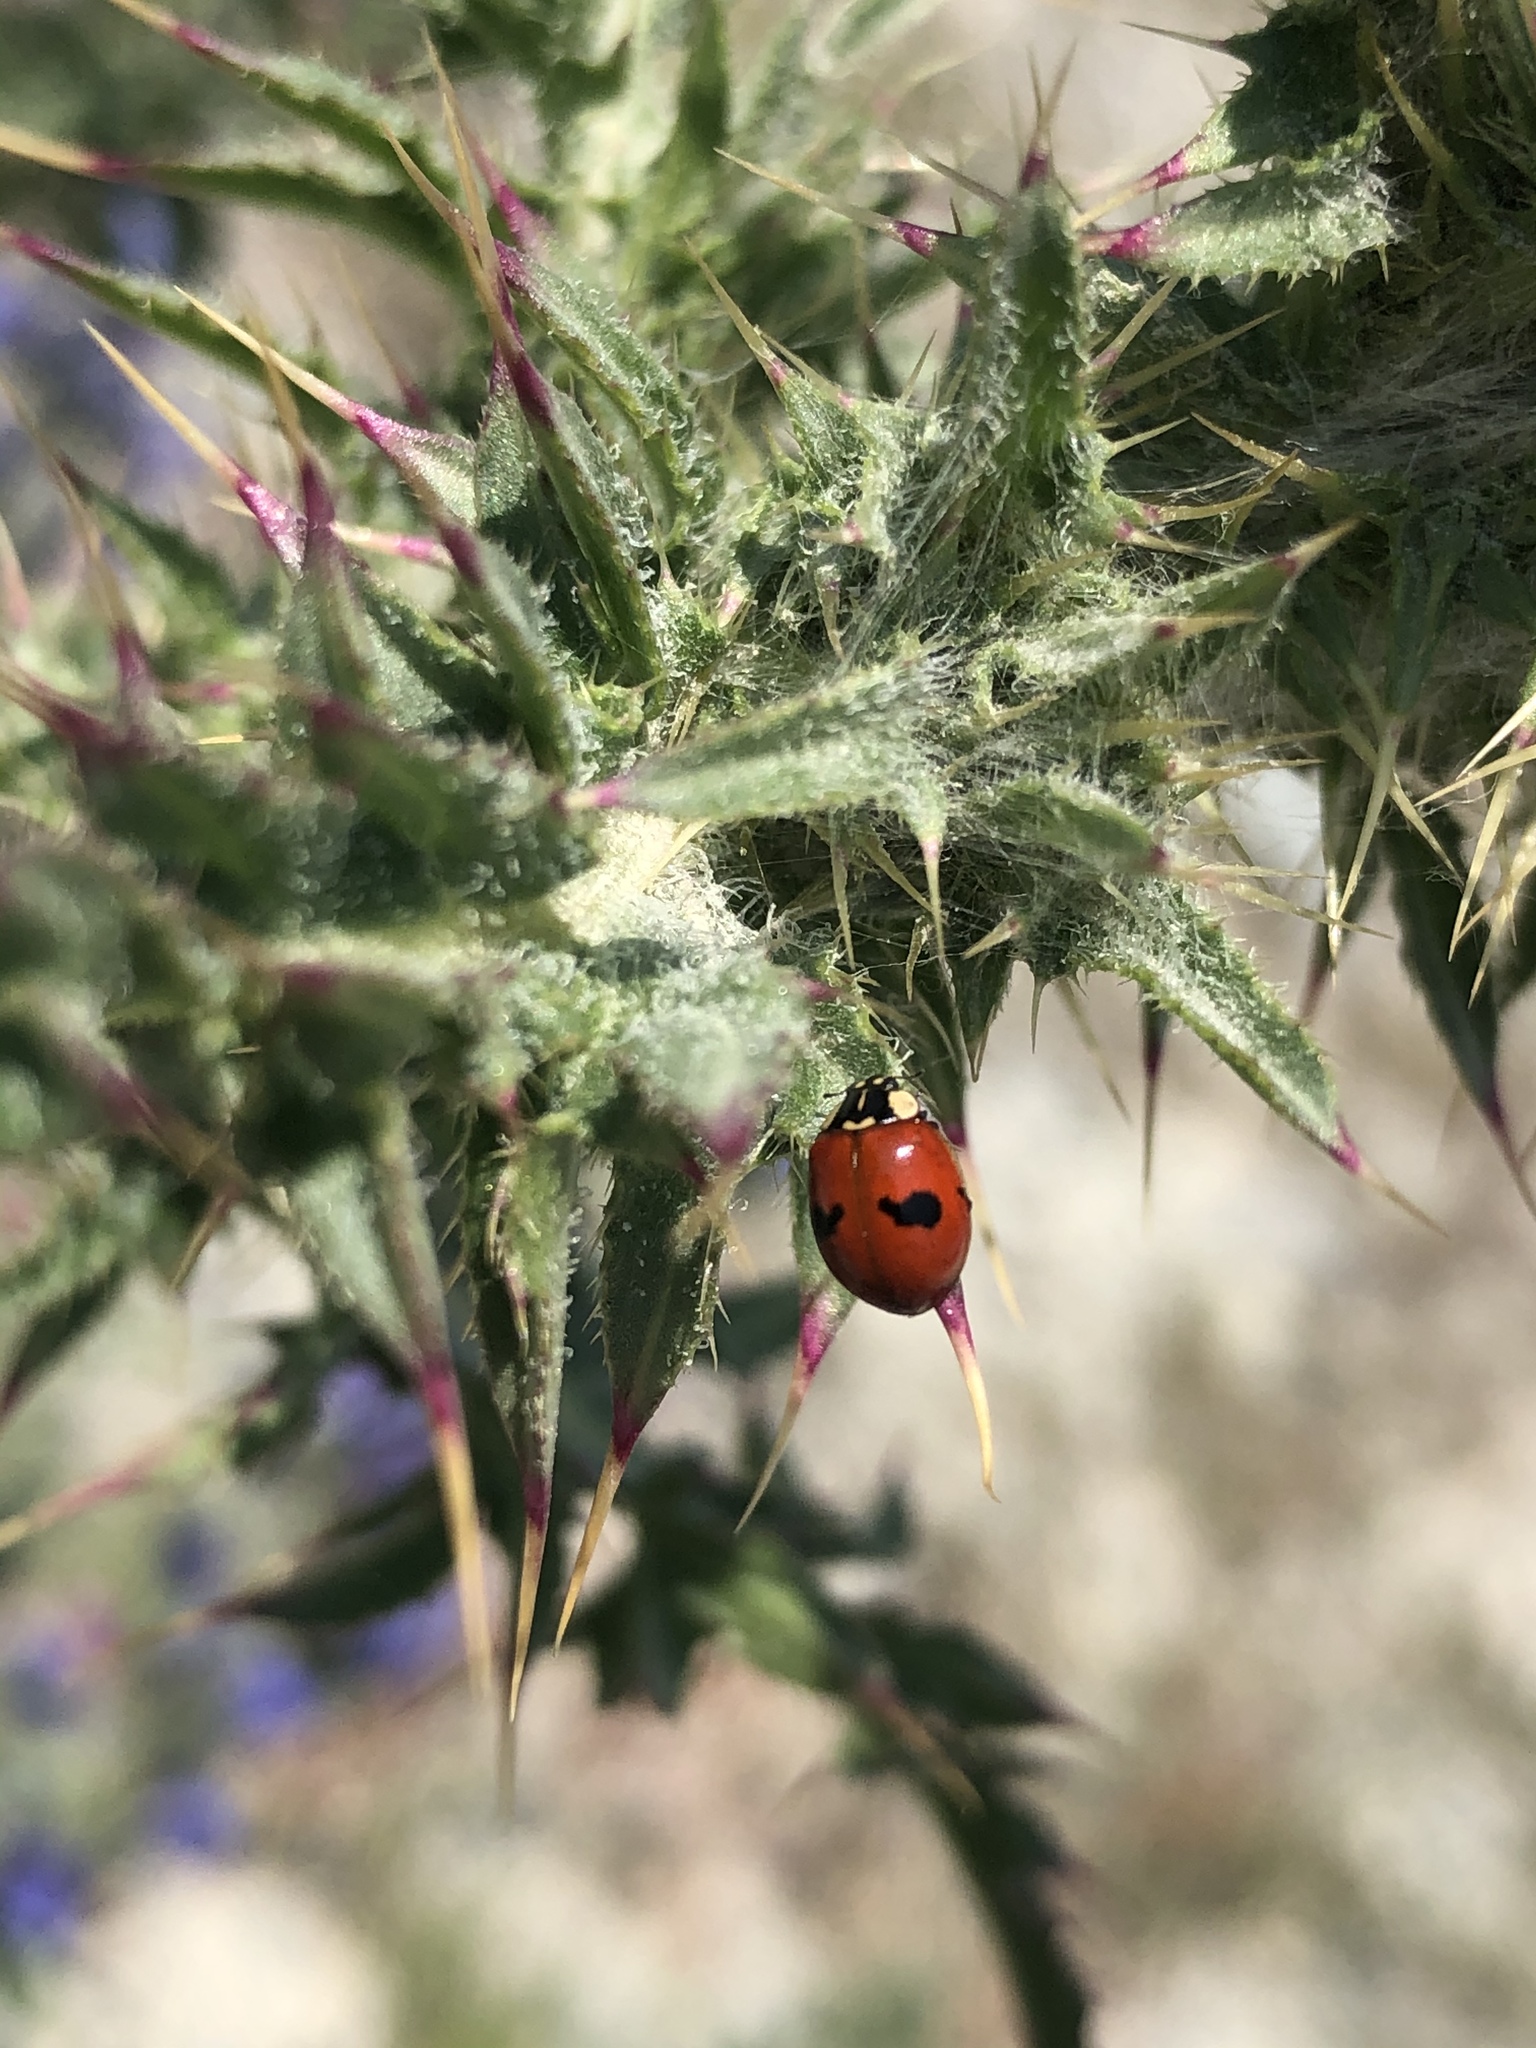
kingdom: Animalia
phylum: Arthropoda
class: Insecta
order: Coleoptera
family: Coccinellidae
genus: Adalia
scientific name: Adalia bipunctata
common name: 2-spot ladybird
